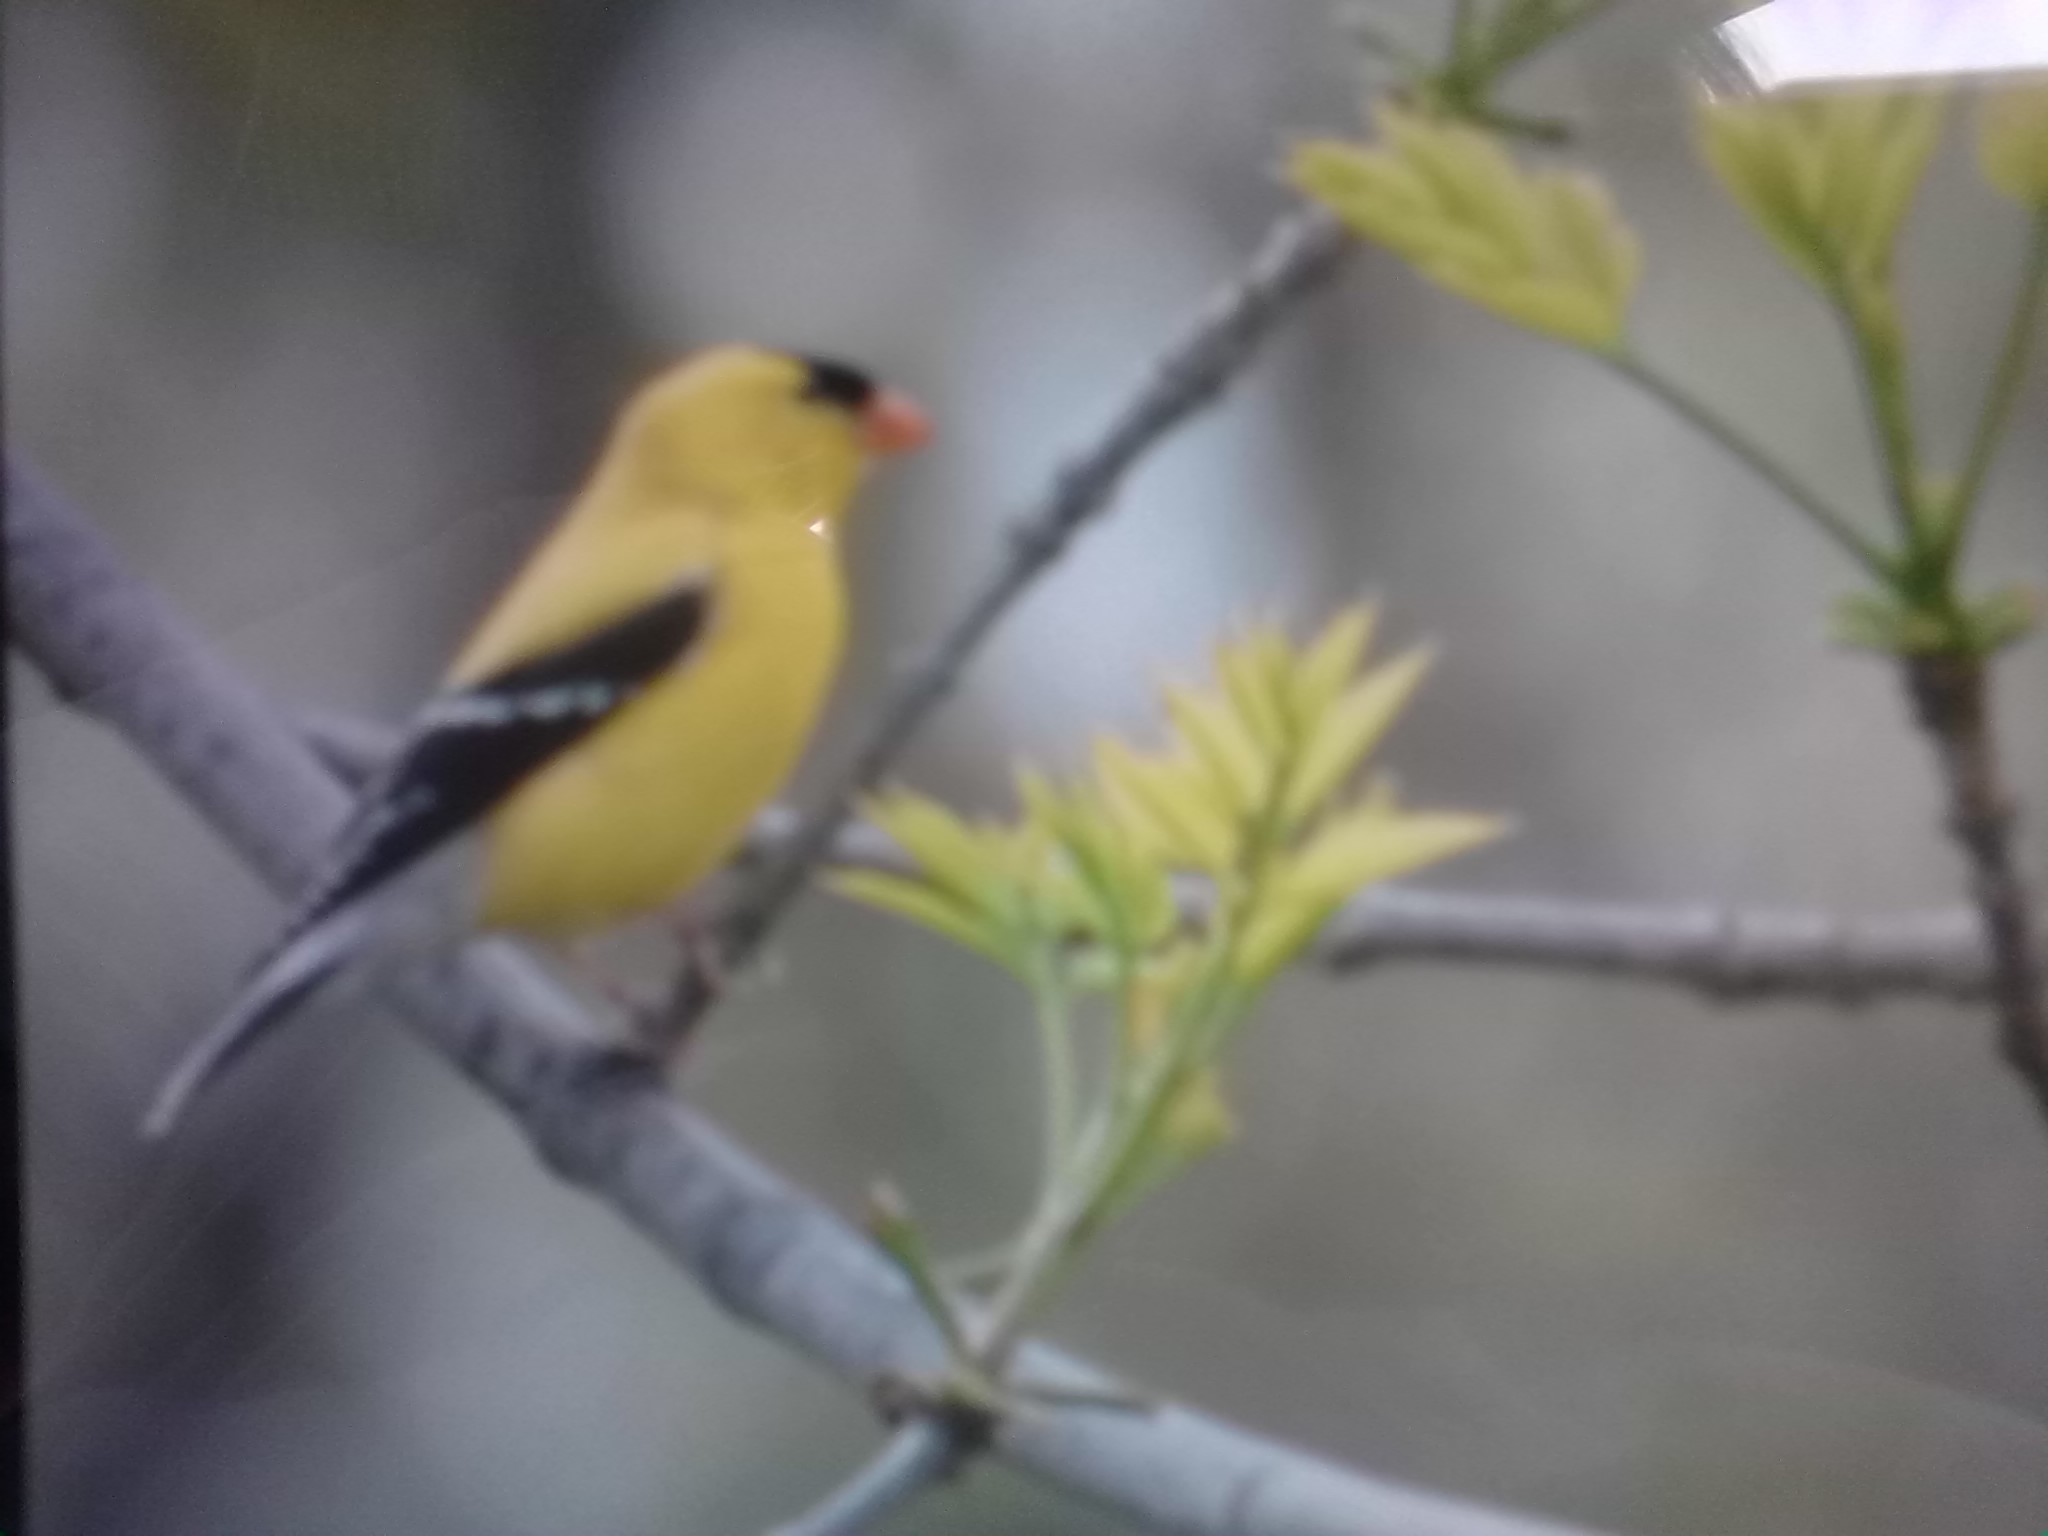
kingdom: Animalia
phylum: Chordata
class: Aves
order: Passeriformes
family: Fringillidae
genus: Spinus
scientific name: Spinus tristis
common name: American goldfinch
